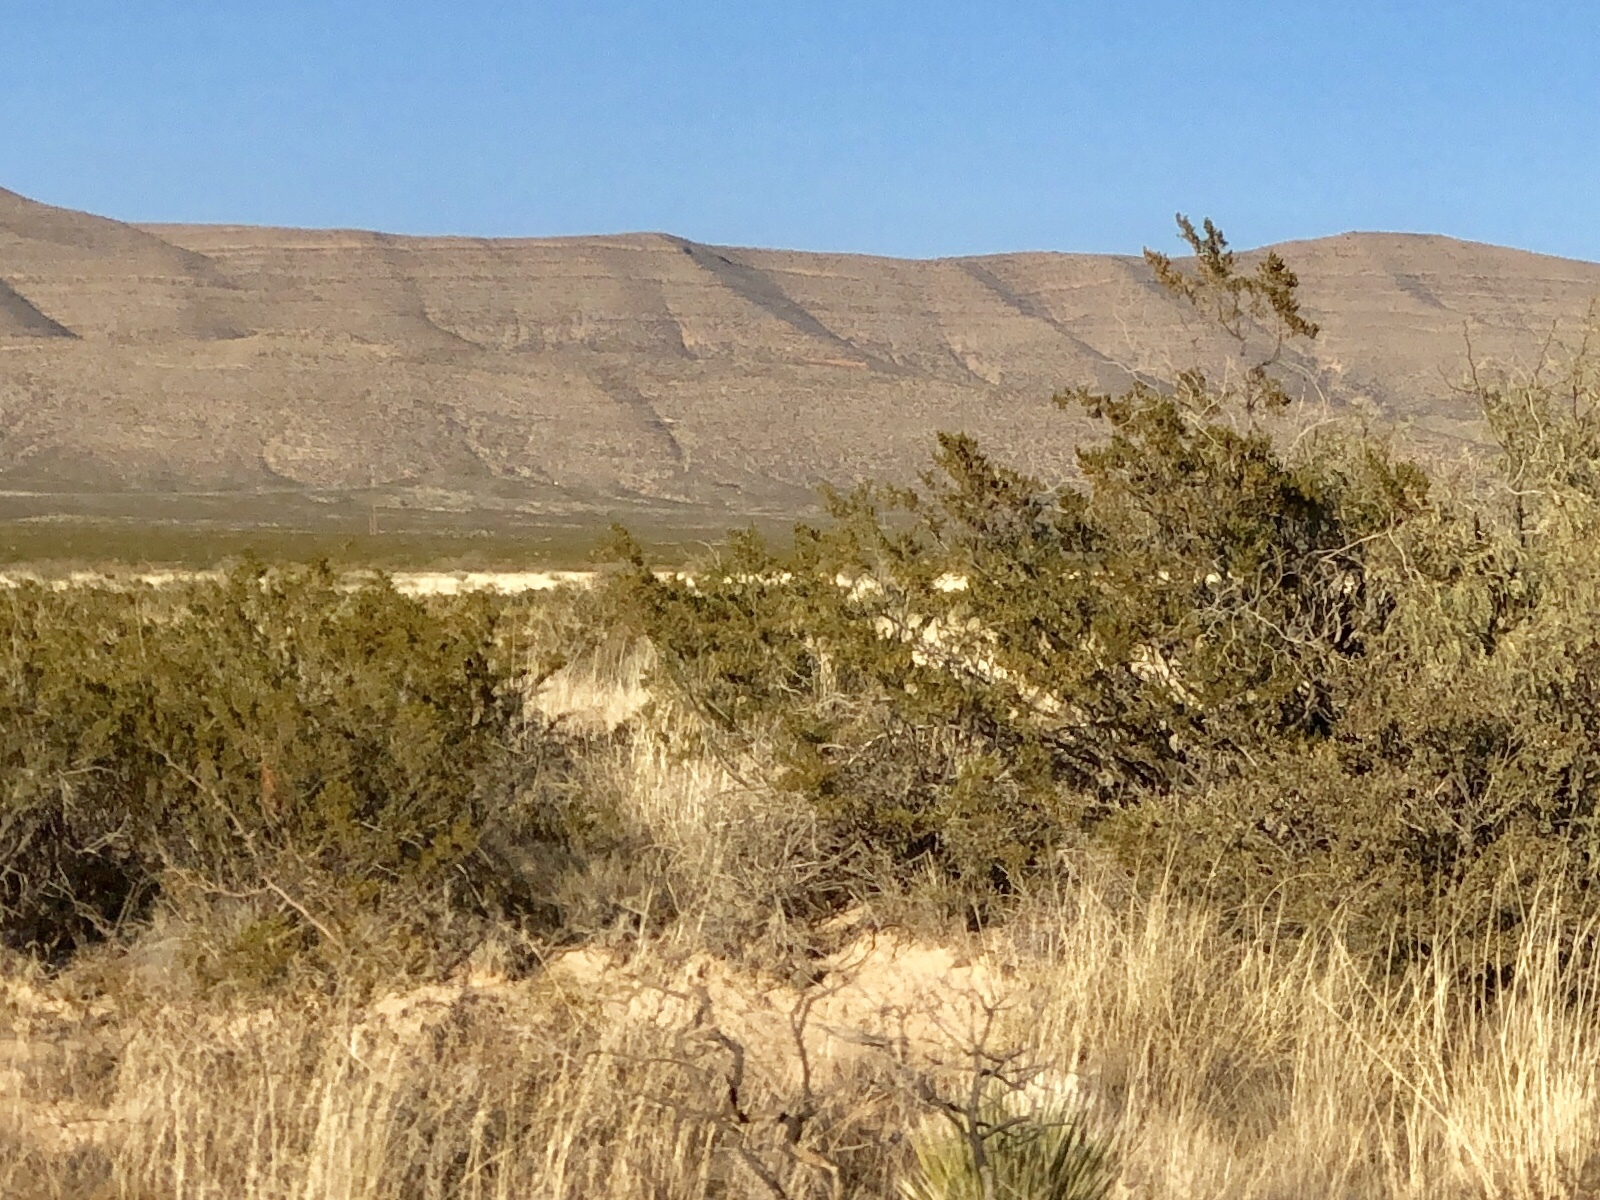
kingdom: Plantae
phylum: Tracheophyta
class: Magnoliopsida
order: Zygophyllales
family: Zygophyllaceae
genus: Larrea
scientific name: Larrea tridentata
